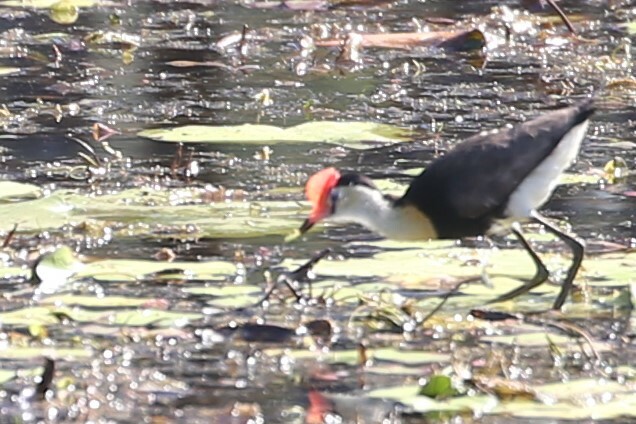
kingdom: Animalia
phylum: Chordata
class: Aves
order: Charadriiformes
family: Jacanidae
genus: Irediparra
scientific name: Irediparra gallinacea
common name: Comb-crested jacana
